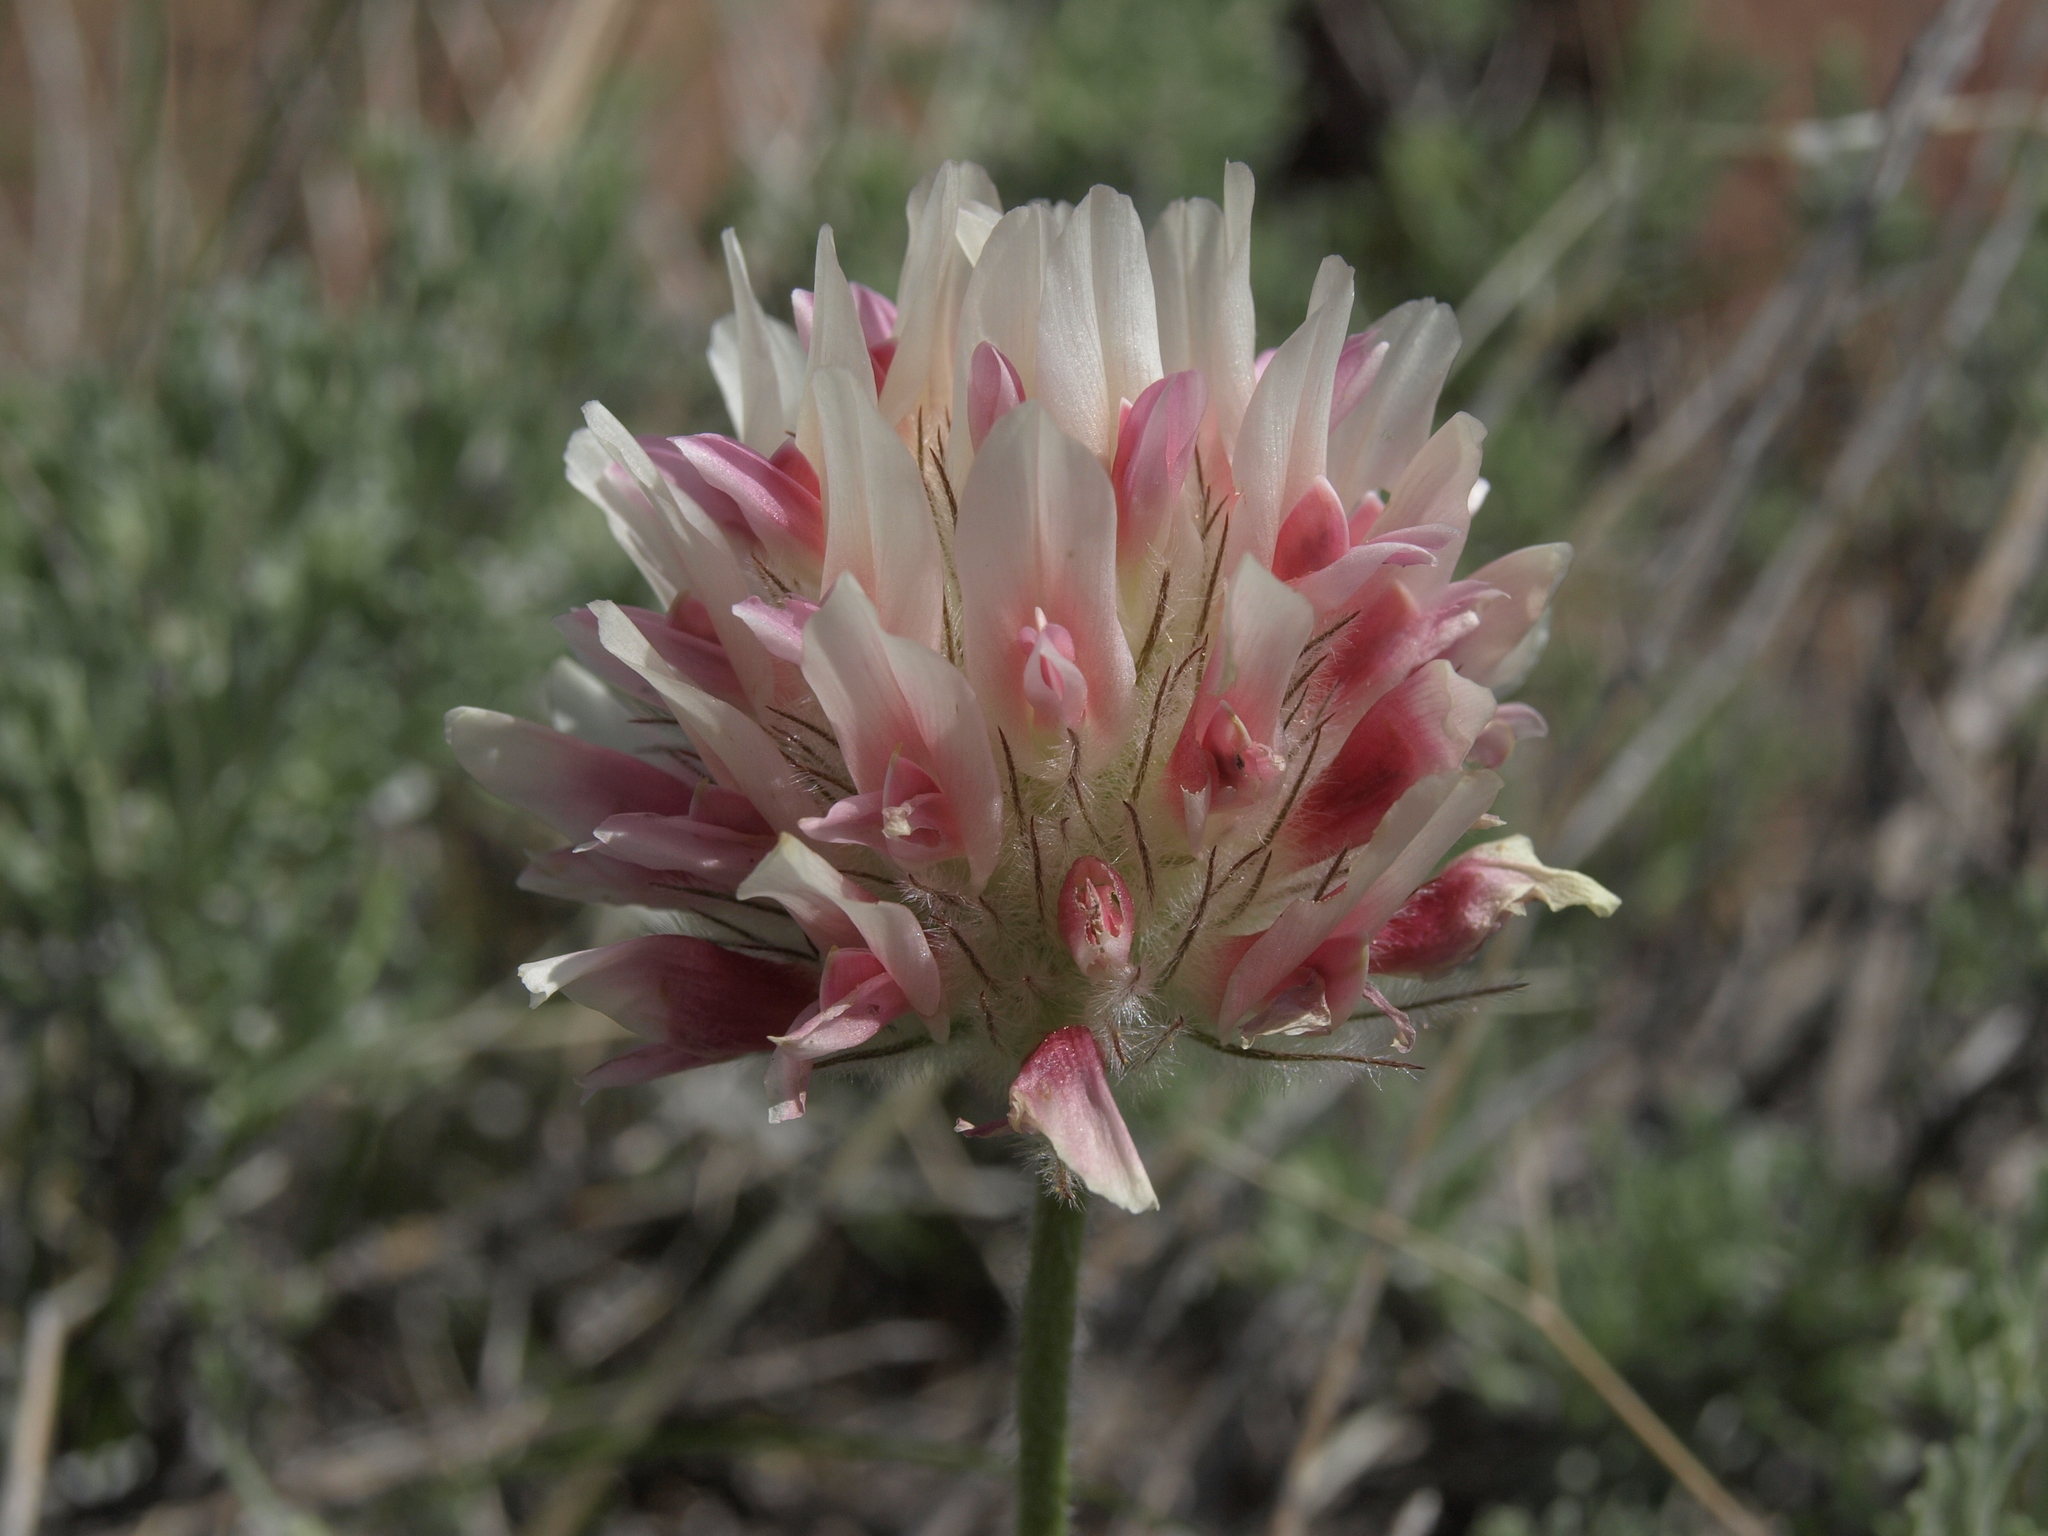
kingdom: Plantae
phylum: Tracheophyta
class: Magnoliopsida
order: Fabales
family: Fabaceae
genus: Trifolium
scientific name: Trifolium macrocephalum
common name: Large-head clover
